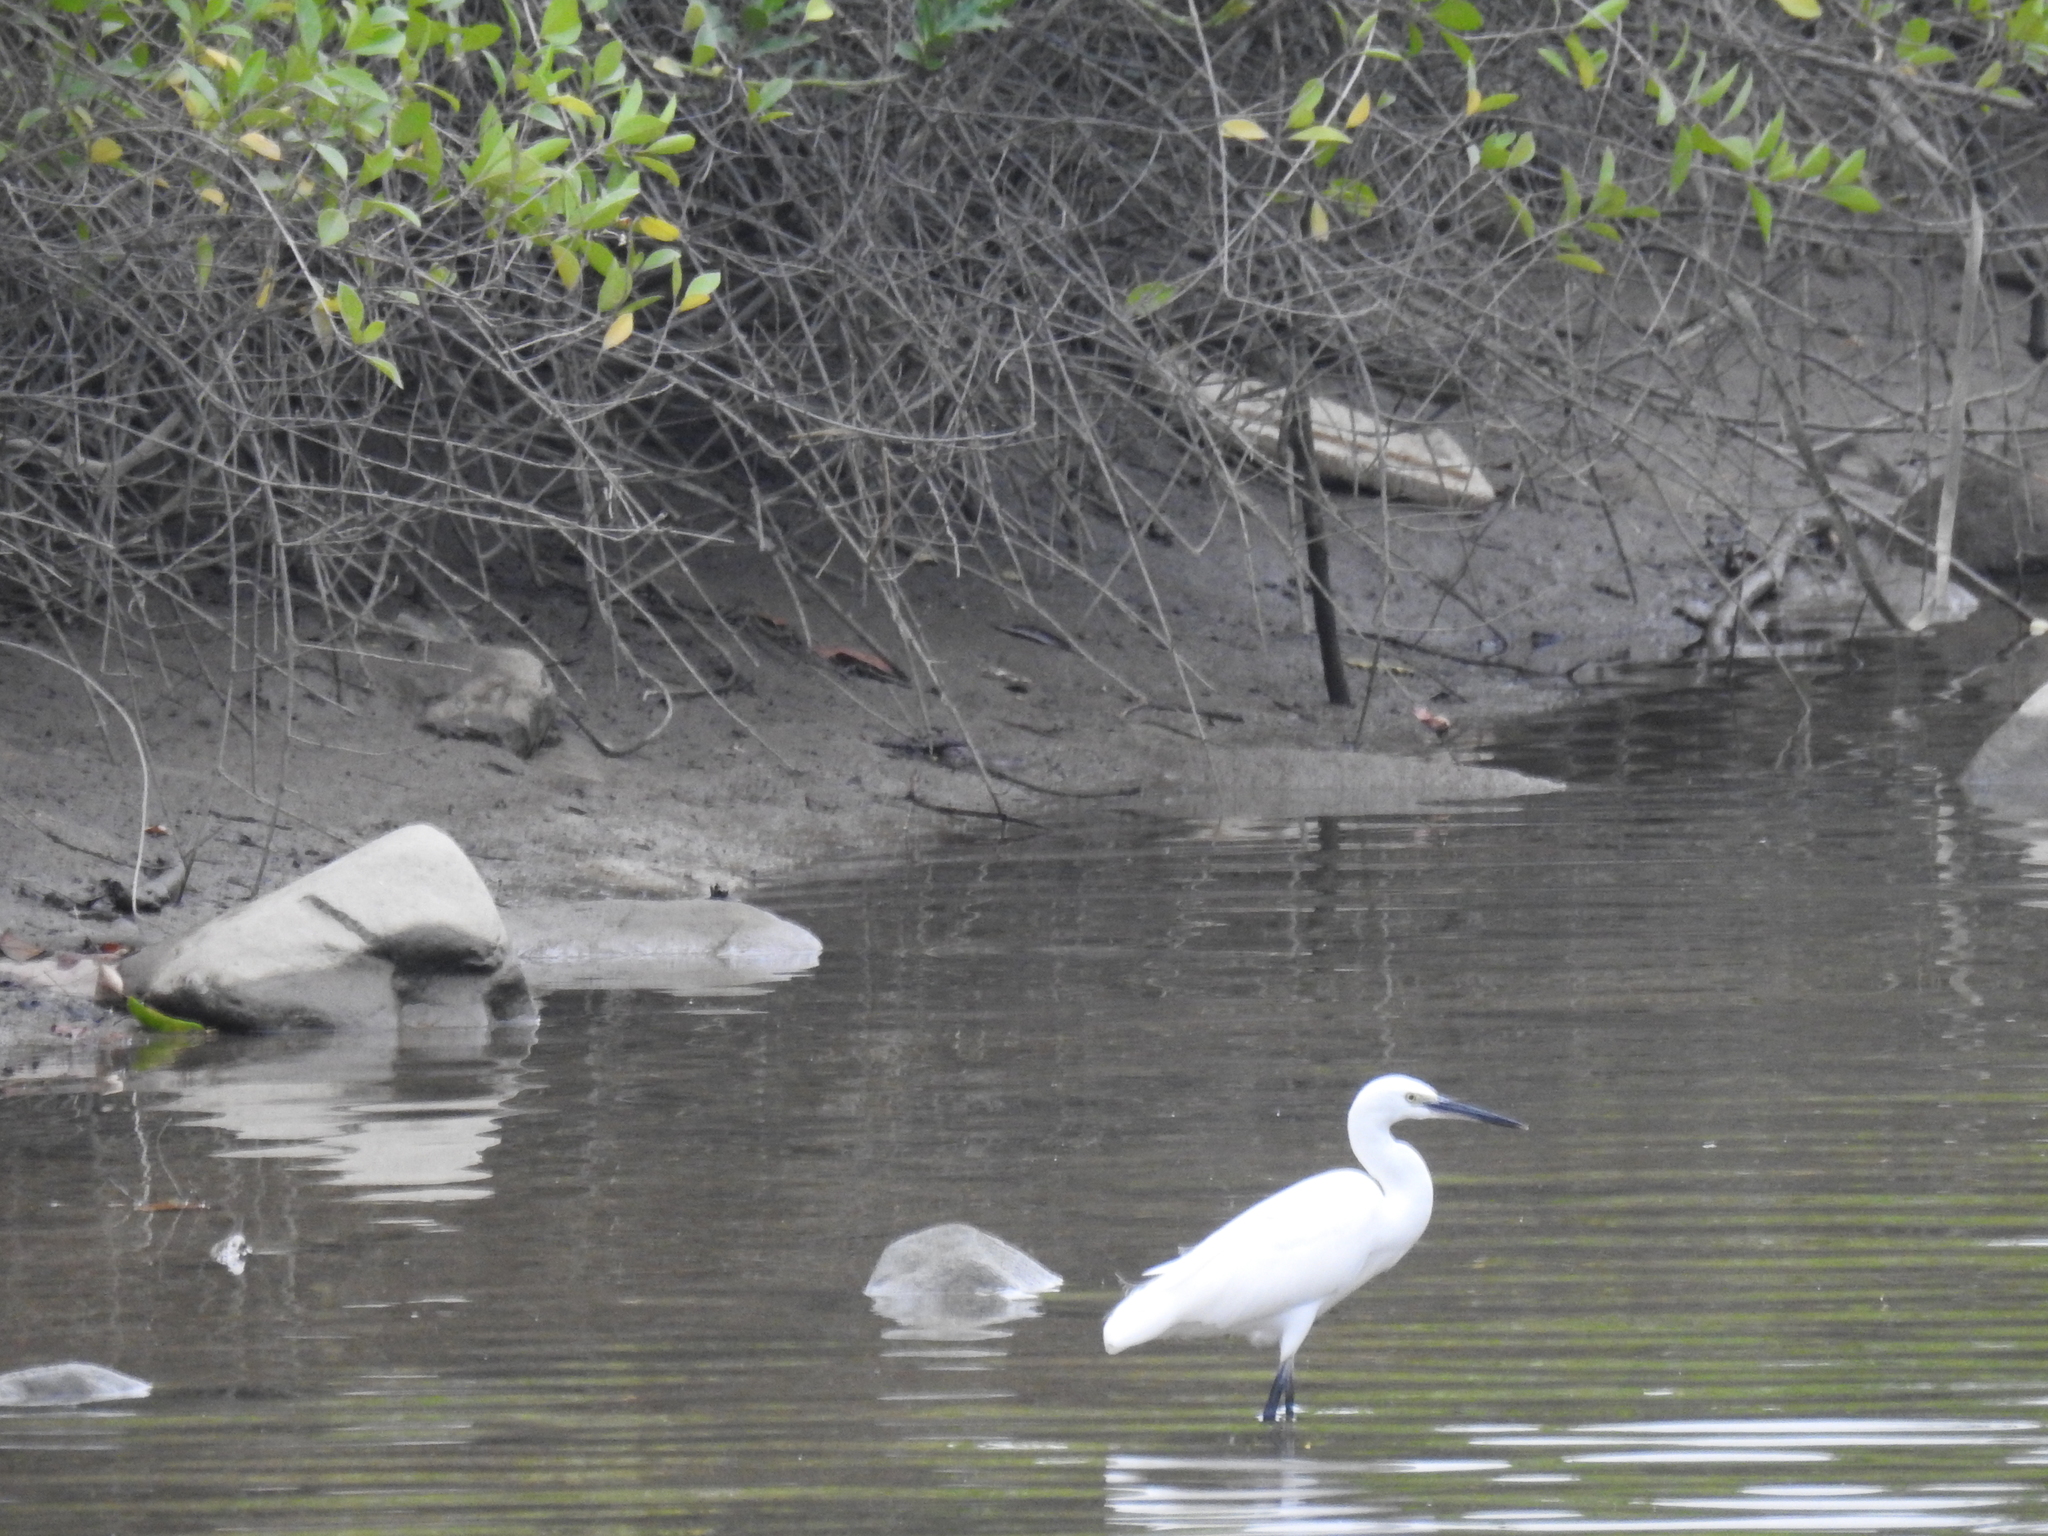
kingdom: Animalia
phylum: Chordata
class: Aves
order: Pelecaniformes
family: Ardeidae
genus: Egretta
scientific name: Egretta garzetta
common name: Little egret
